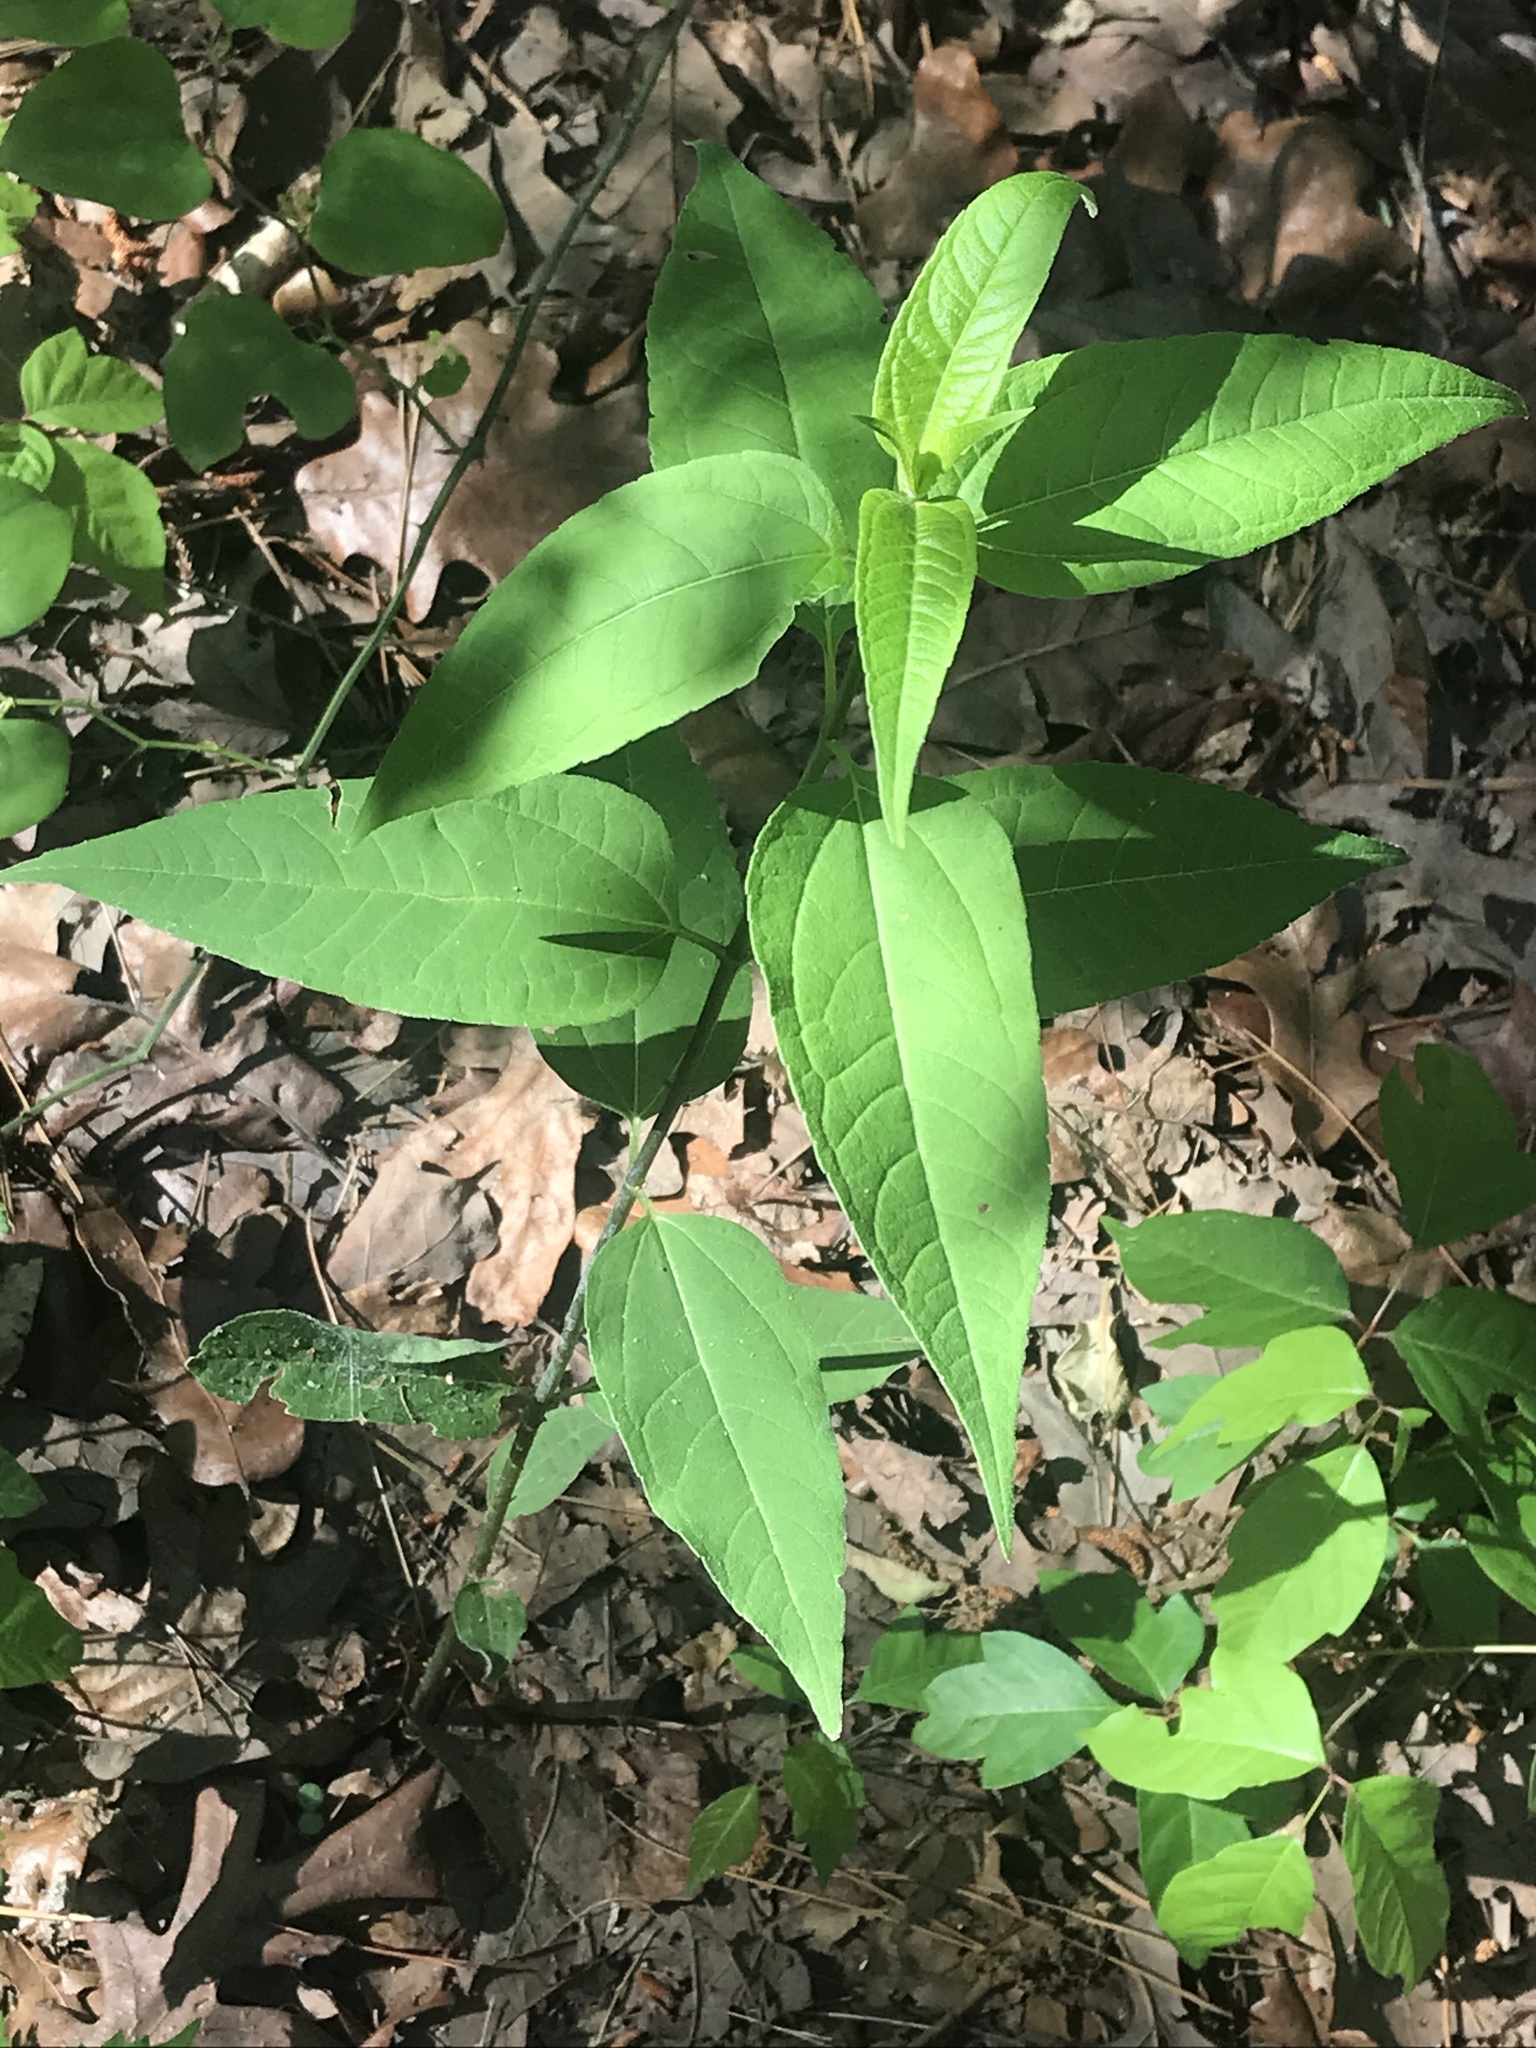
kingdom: Plantae
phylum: Tracheophyta
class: Magnoliopsida
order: Asterales
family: Asteraceae
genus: Helianthus
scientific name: Helianthus divaricatus
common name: Divergent sunflower
